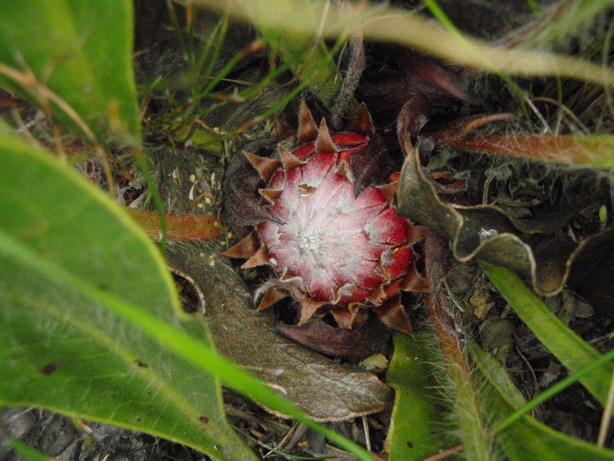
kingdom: Plantae
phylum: Tracheophyta
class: Magnoliopsida
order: Proteales
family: Proteaceae
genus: Protea
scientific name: Protea scolopendriifolia
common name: Harts-tongue-fern sugarbush
